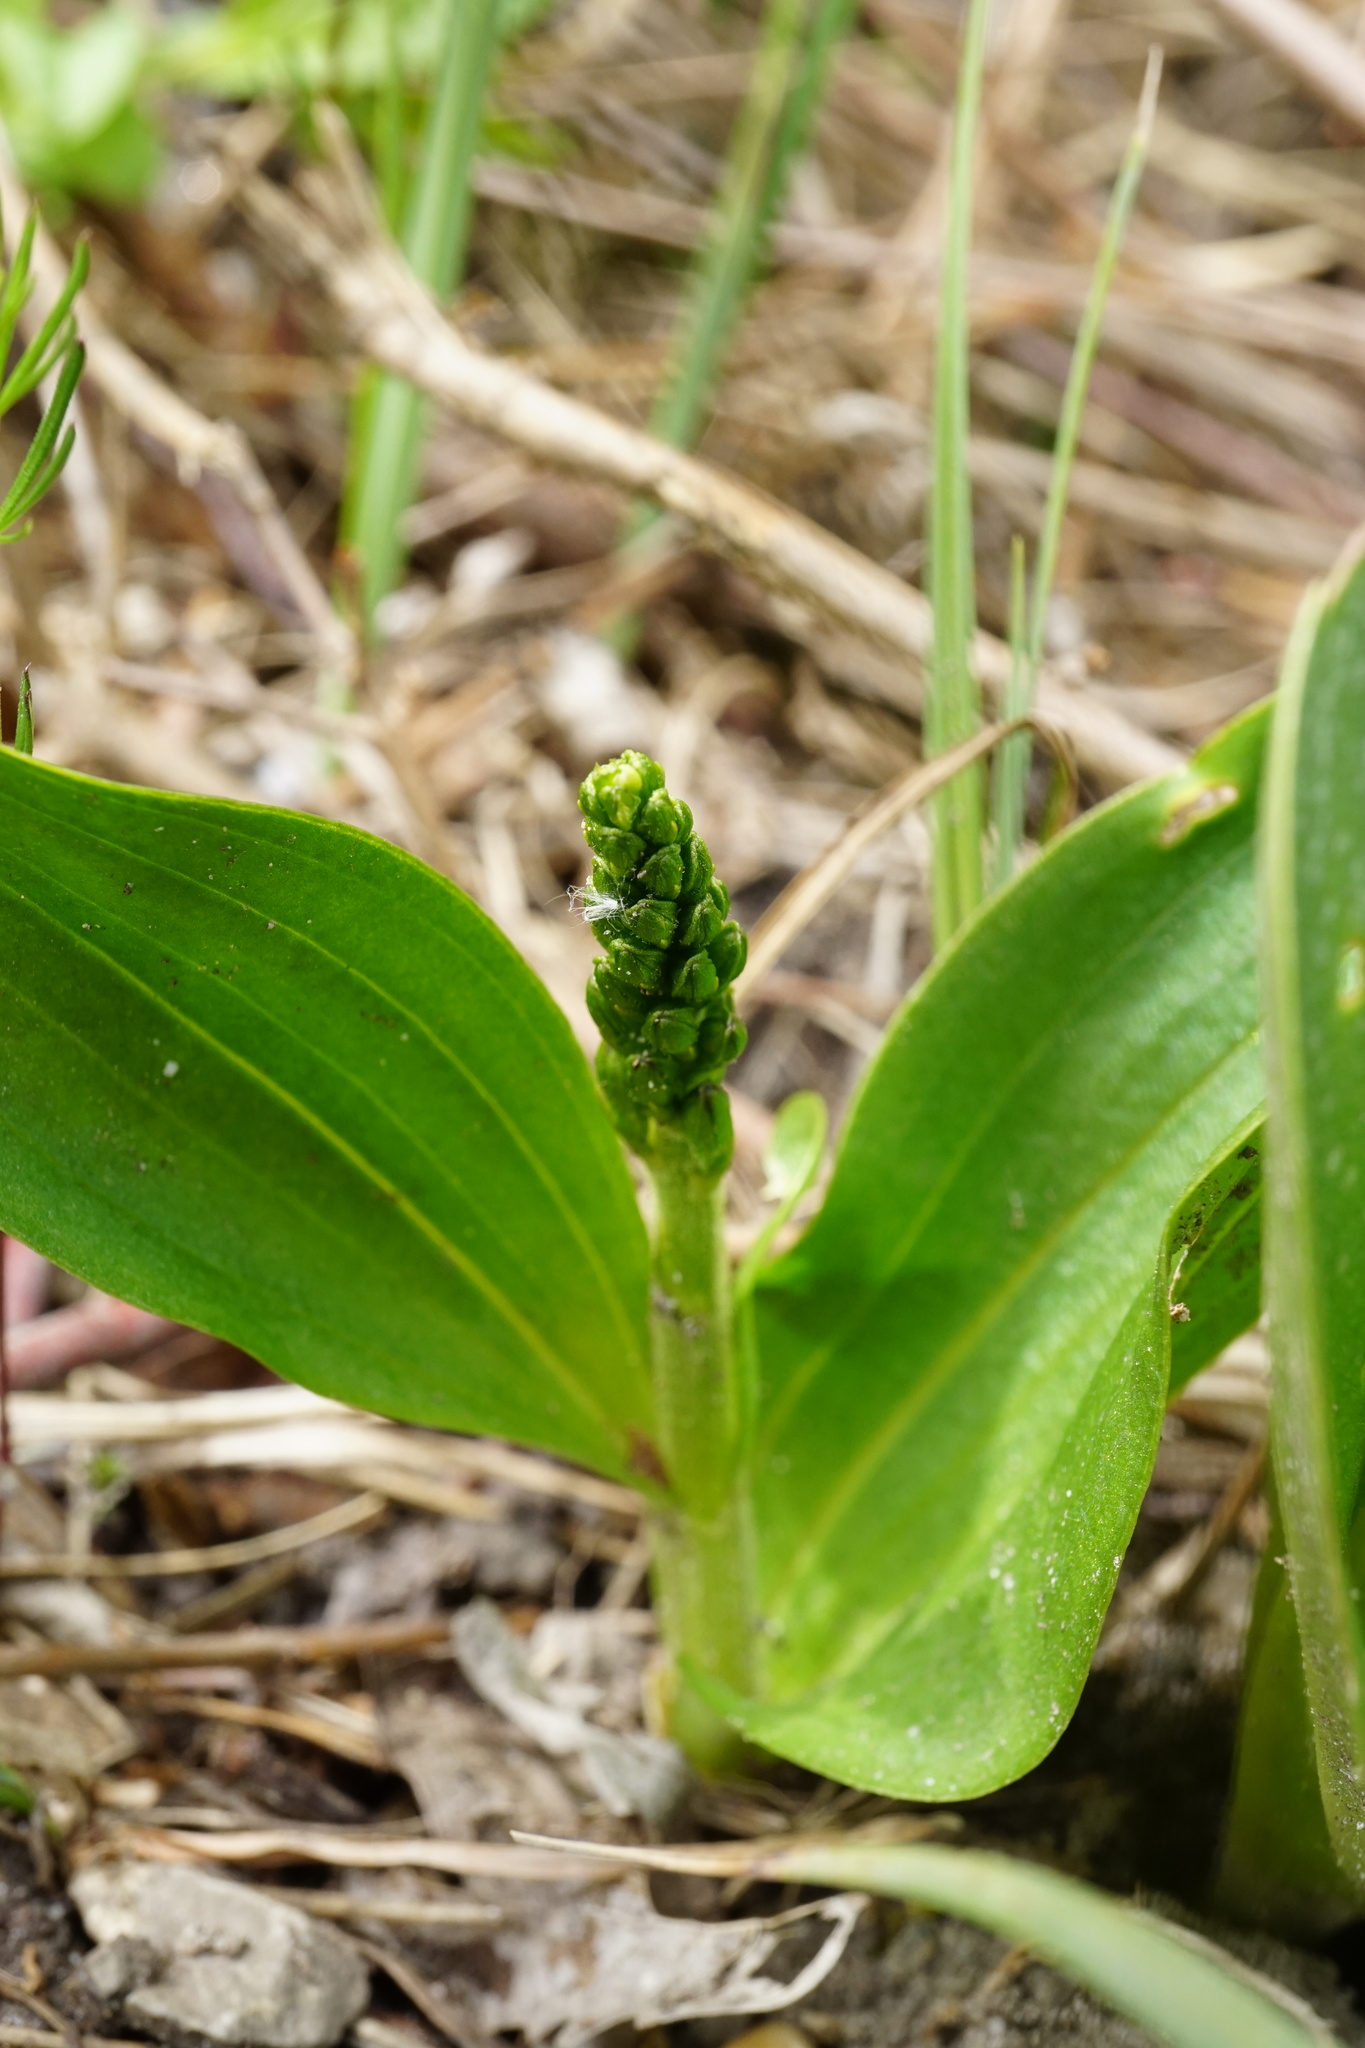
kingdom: Plantae
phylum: Tracheophyta
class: Liliopsida
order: Asparagales
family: Orchidaceae
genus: Neottia
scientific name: Neottia ovata
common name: Common twayblade
